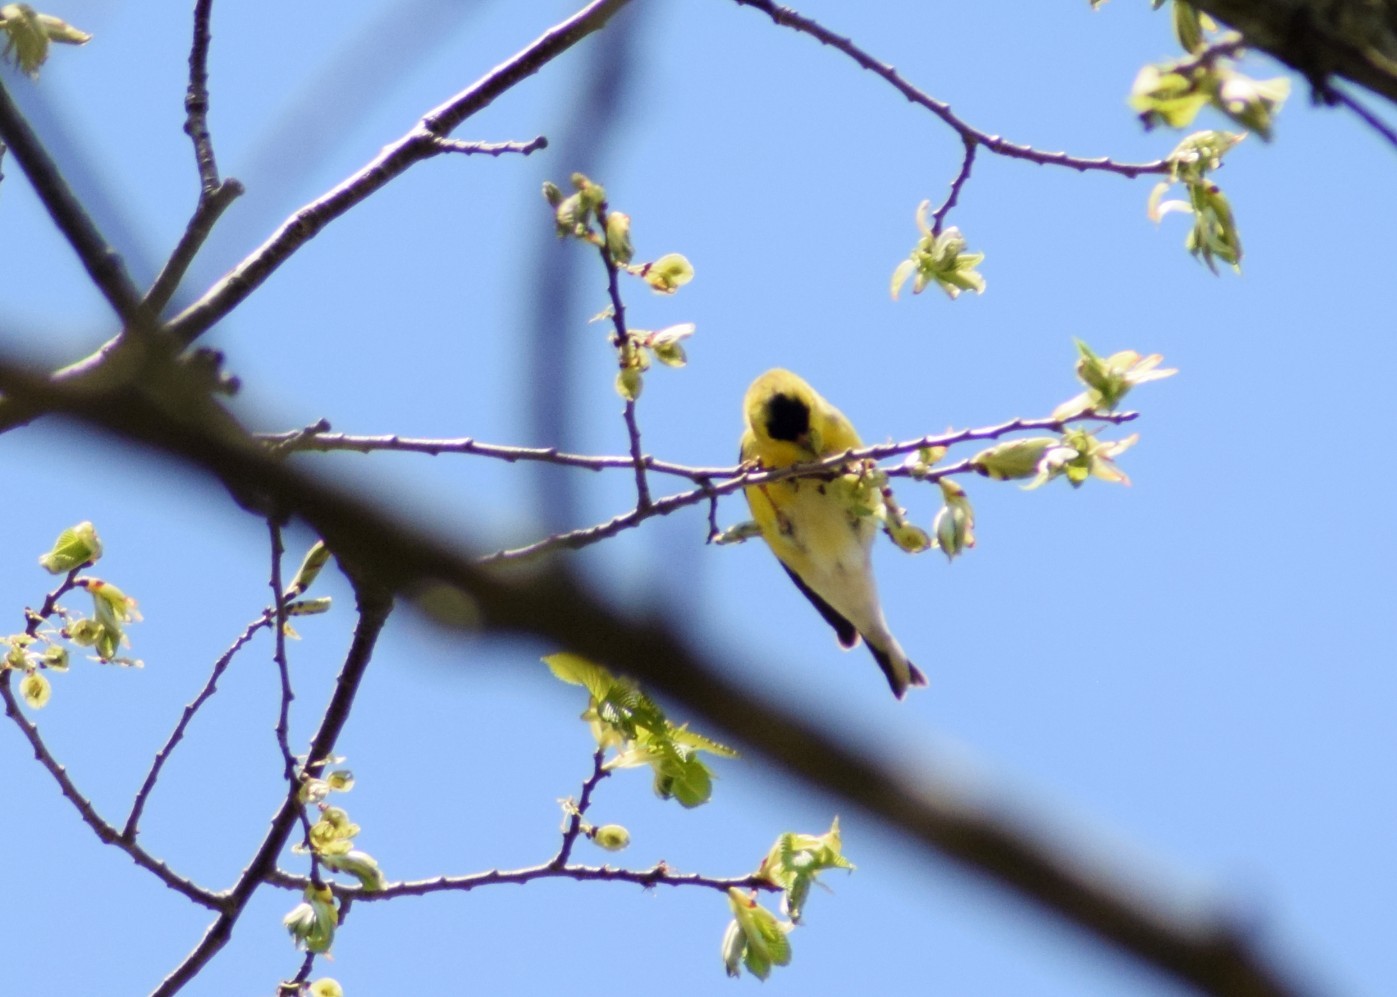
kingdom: Animalia
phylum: Chordata
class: Aves
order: Passeriformes
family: Fringillidae
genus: Spinus
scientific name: Spinus tristis
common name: American goldfinch
